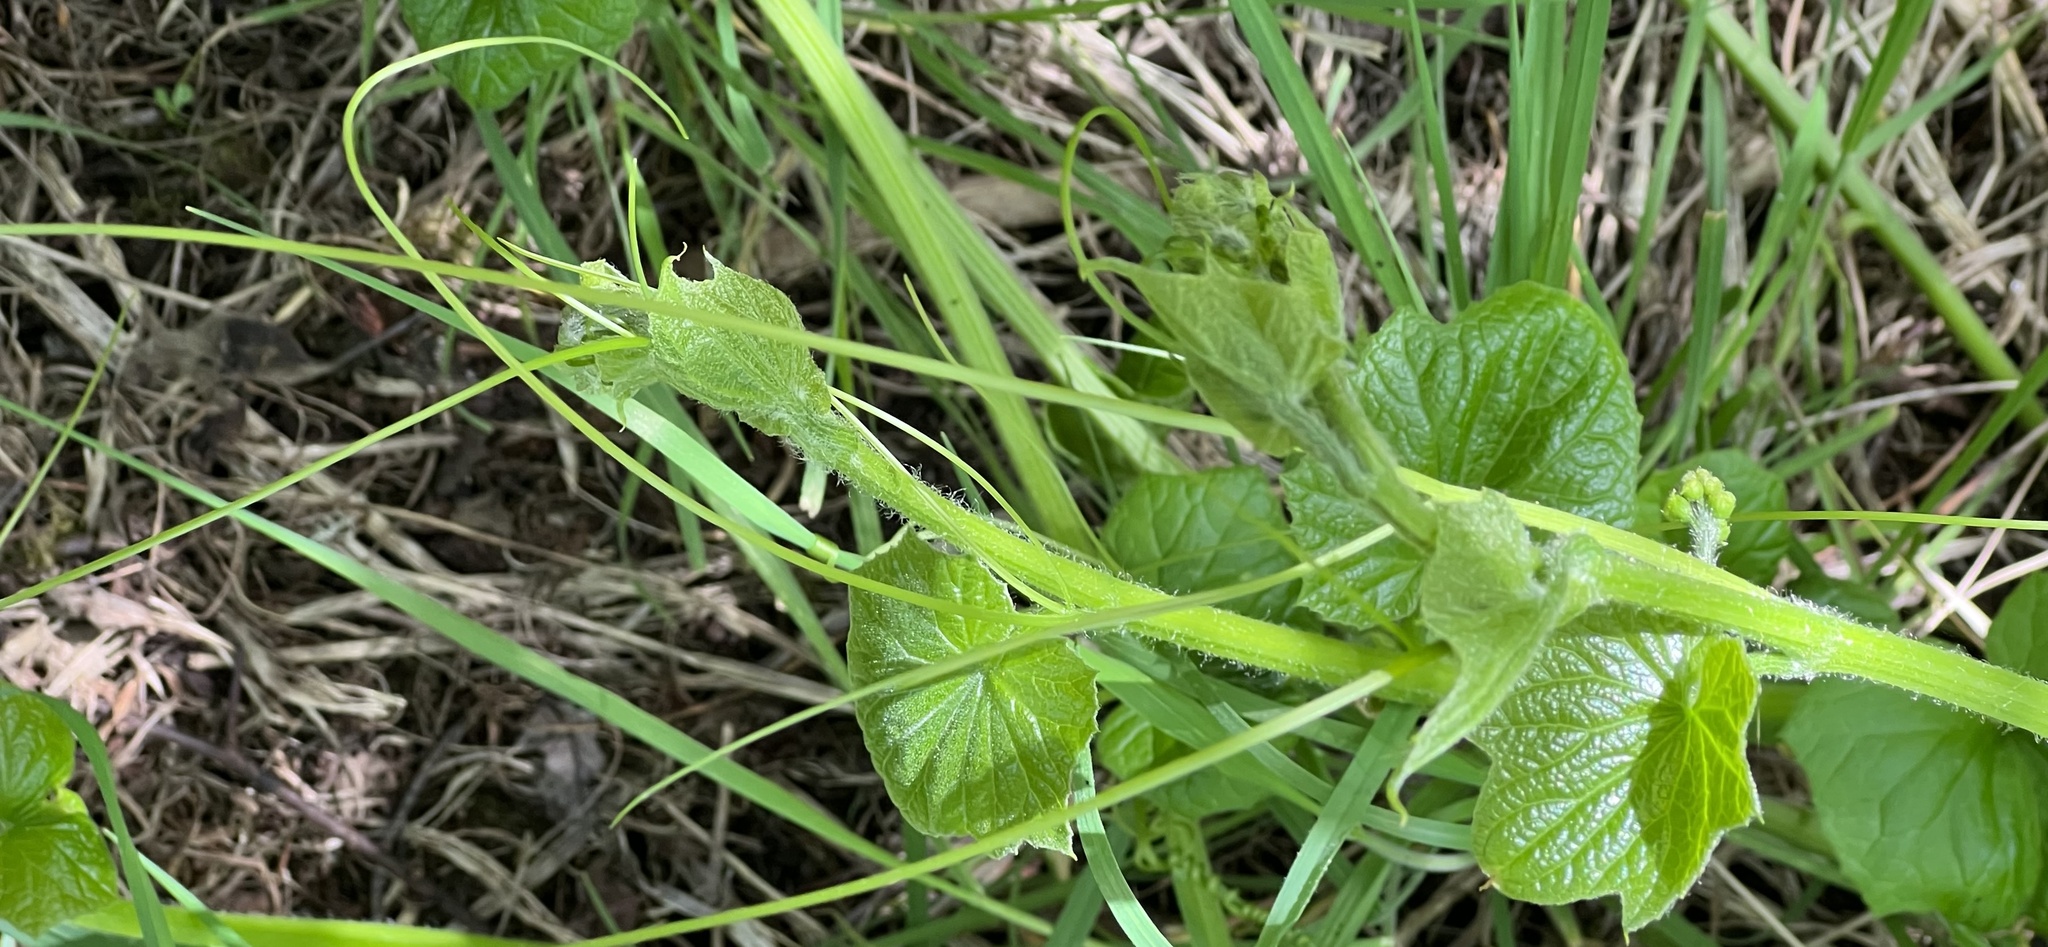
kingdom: Plantae
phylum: Tracheophyta
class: Magnoliopsida
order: Cucurbitales
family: Cucurbitaceae
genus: Marah
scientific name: Marah oregana
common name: Coastal manroot
